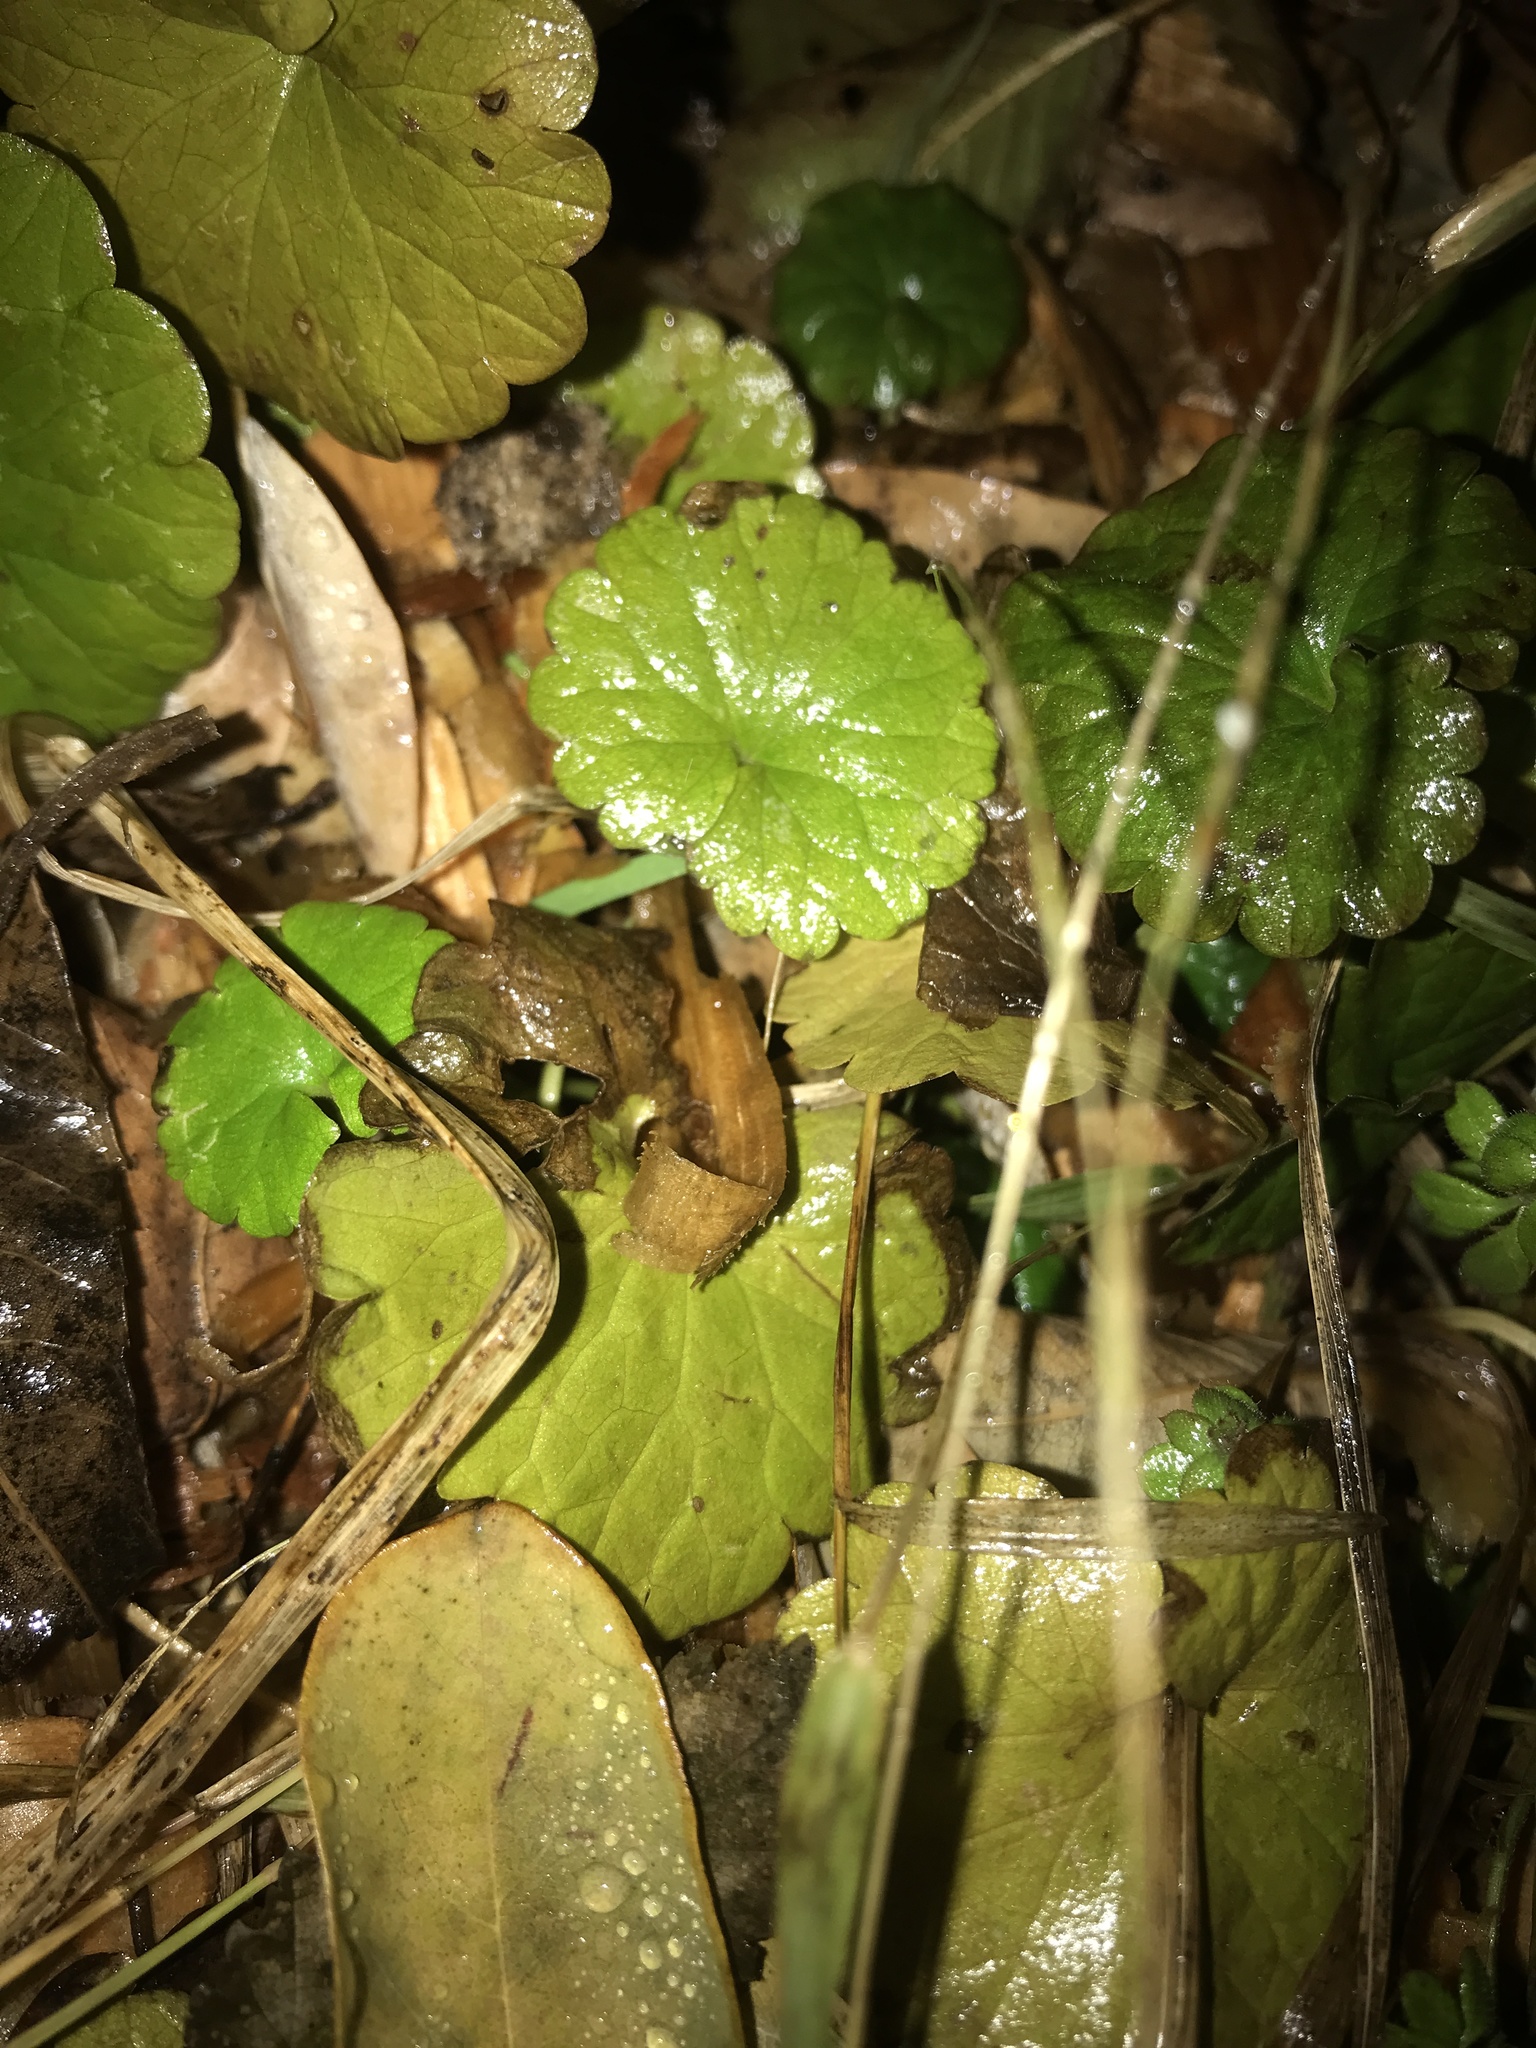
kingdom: Plantae
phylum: Tracheophyta
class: Magnoliopsida
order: Lamiales
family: Lamiaceae
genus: Glechoma
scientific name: Glechoma hederacea
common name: Ground ivy
